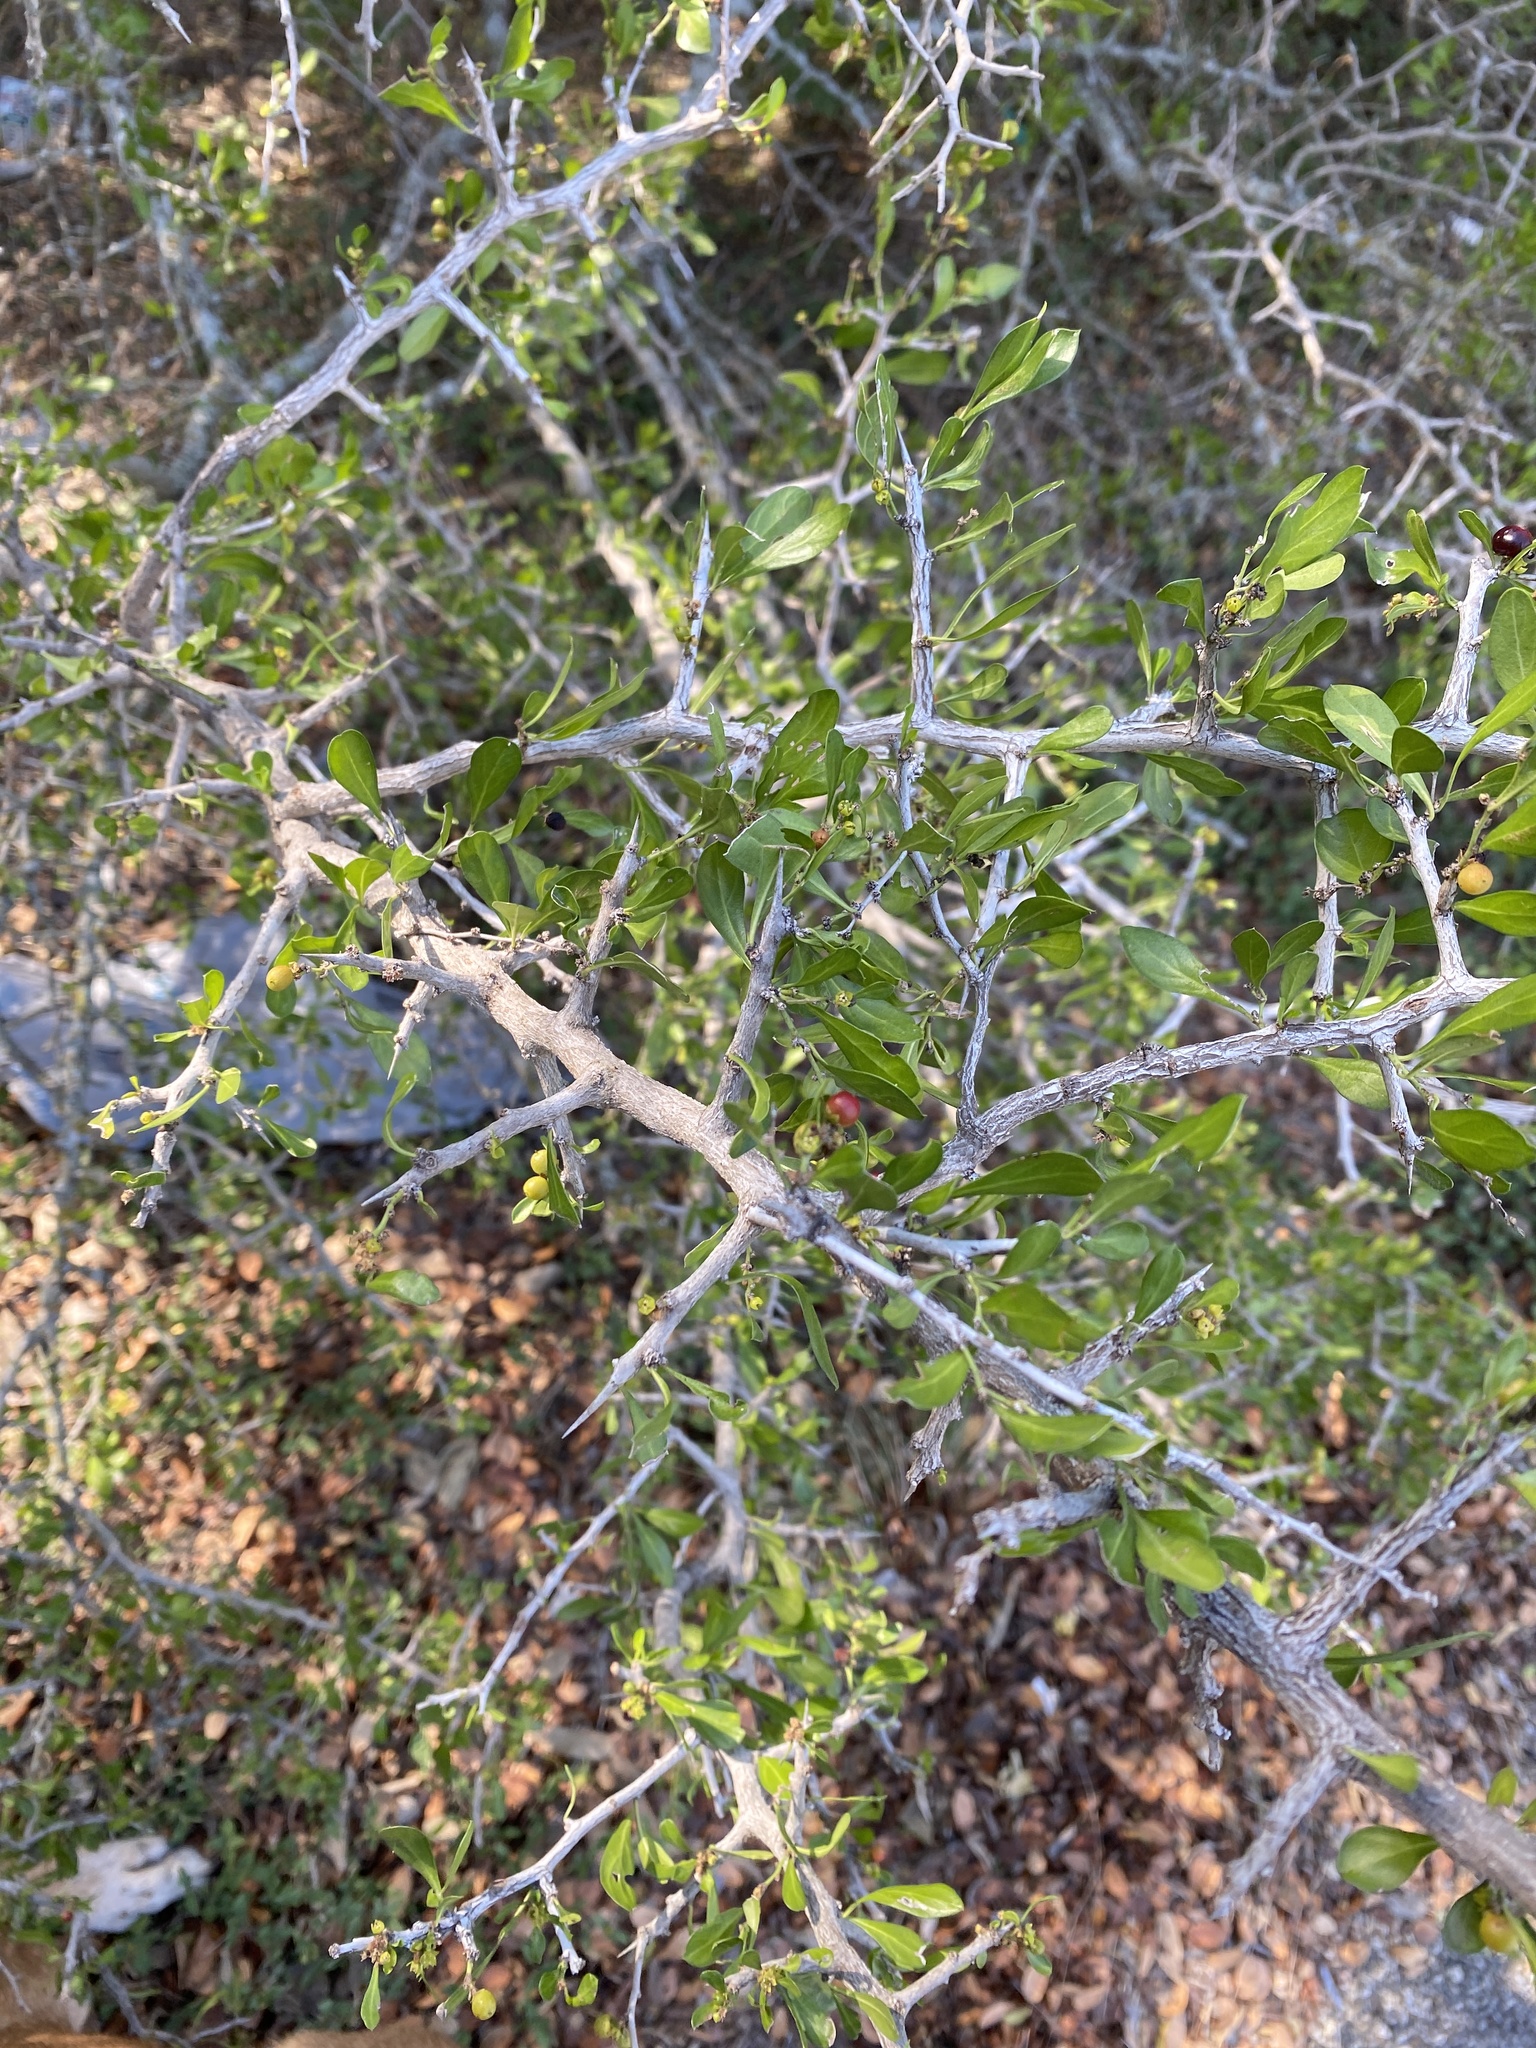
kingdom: Plantae
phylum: Tracheophyta
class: Magnoliopsida
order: Rosales
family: Rhamnaceae
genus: Condalia
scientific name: Condalia hookeri
